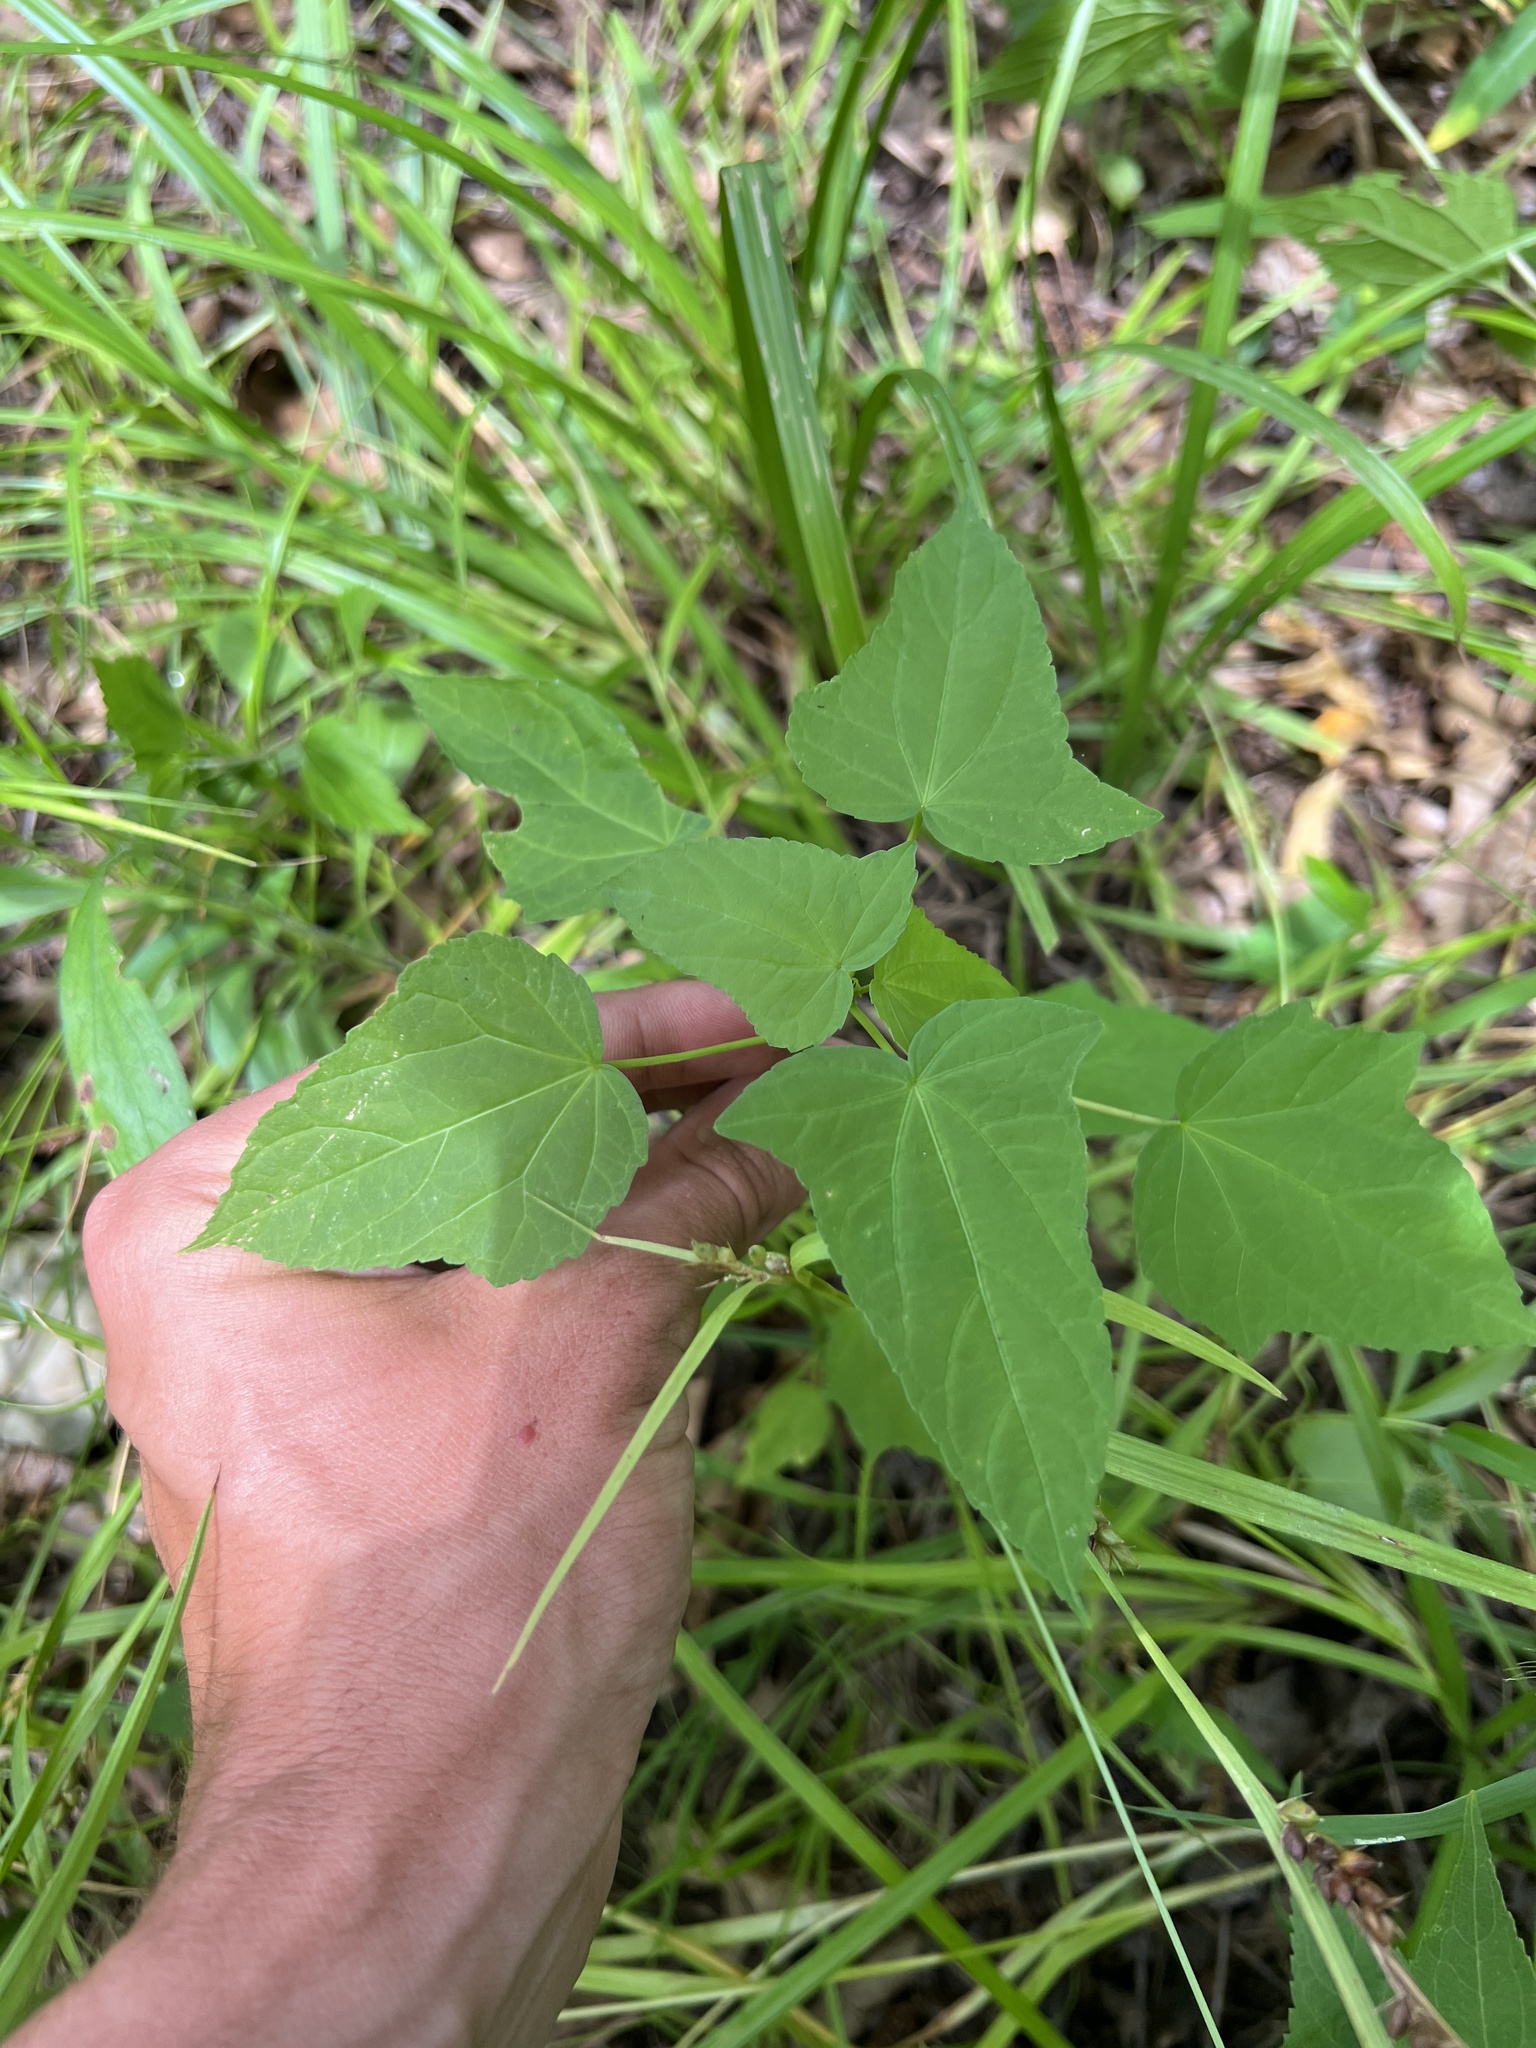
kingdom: Plantae
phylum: Tracheophyta
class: Magnoliopsida
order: Malvales
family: Malvaceae
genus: Hibiscus
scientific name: Hibiscus laevis
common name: Scarlet rose-mallow
